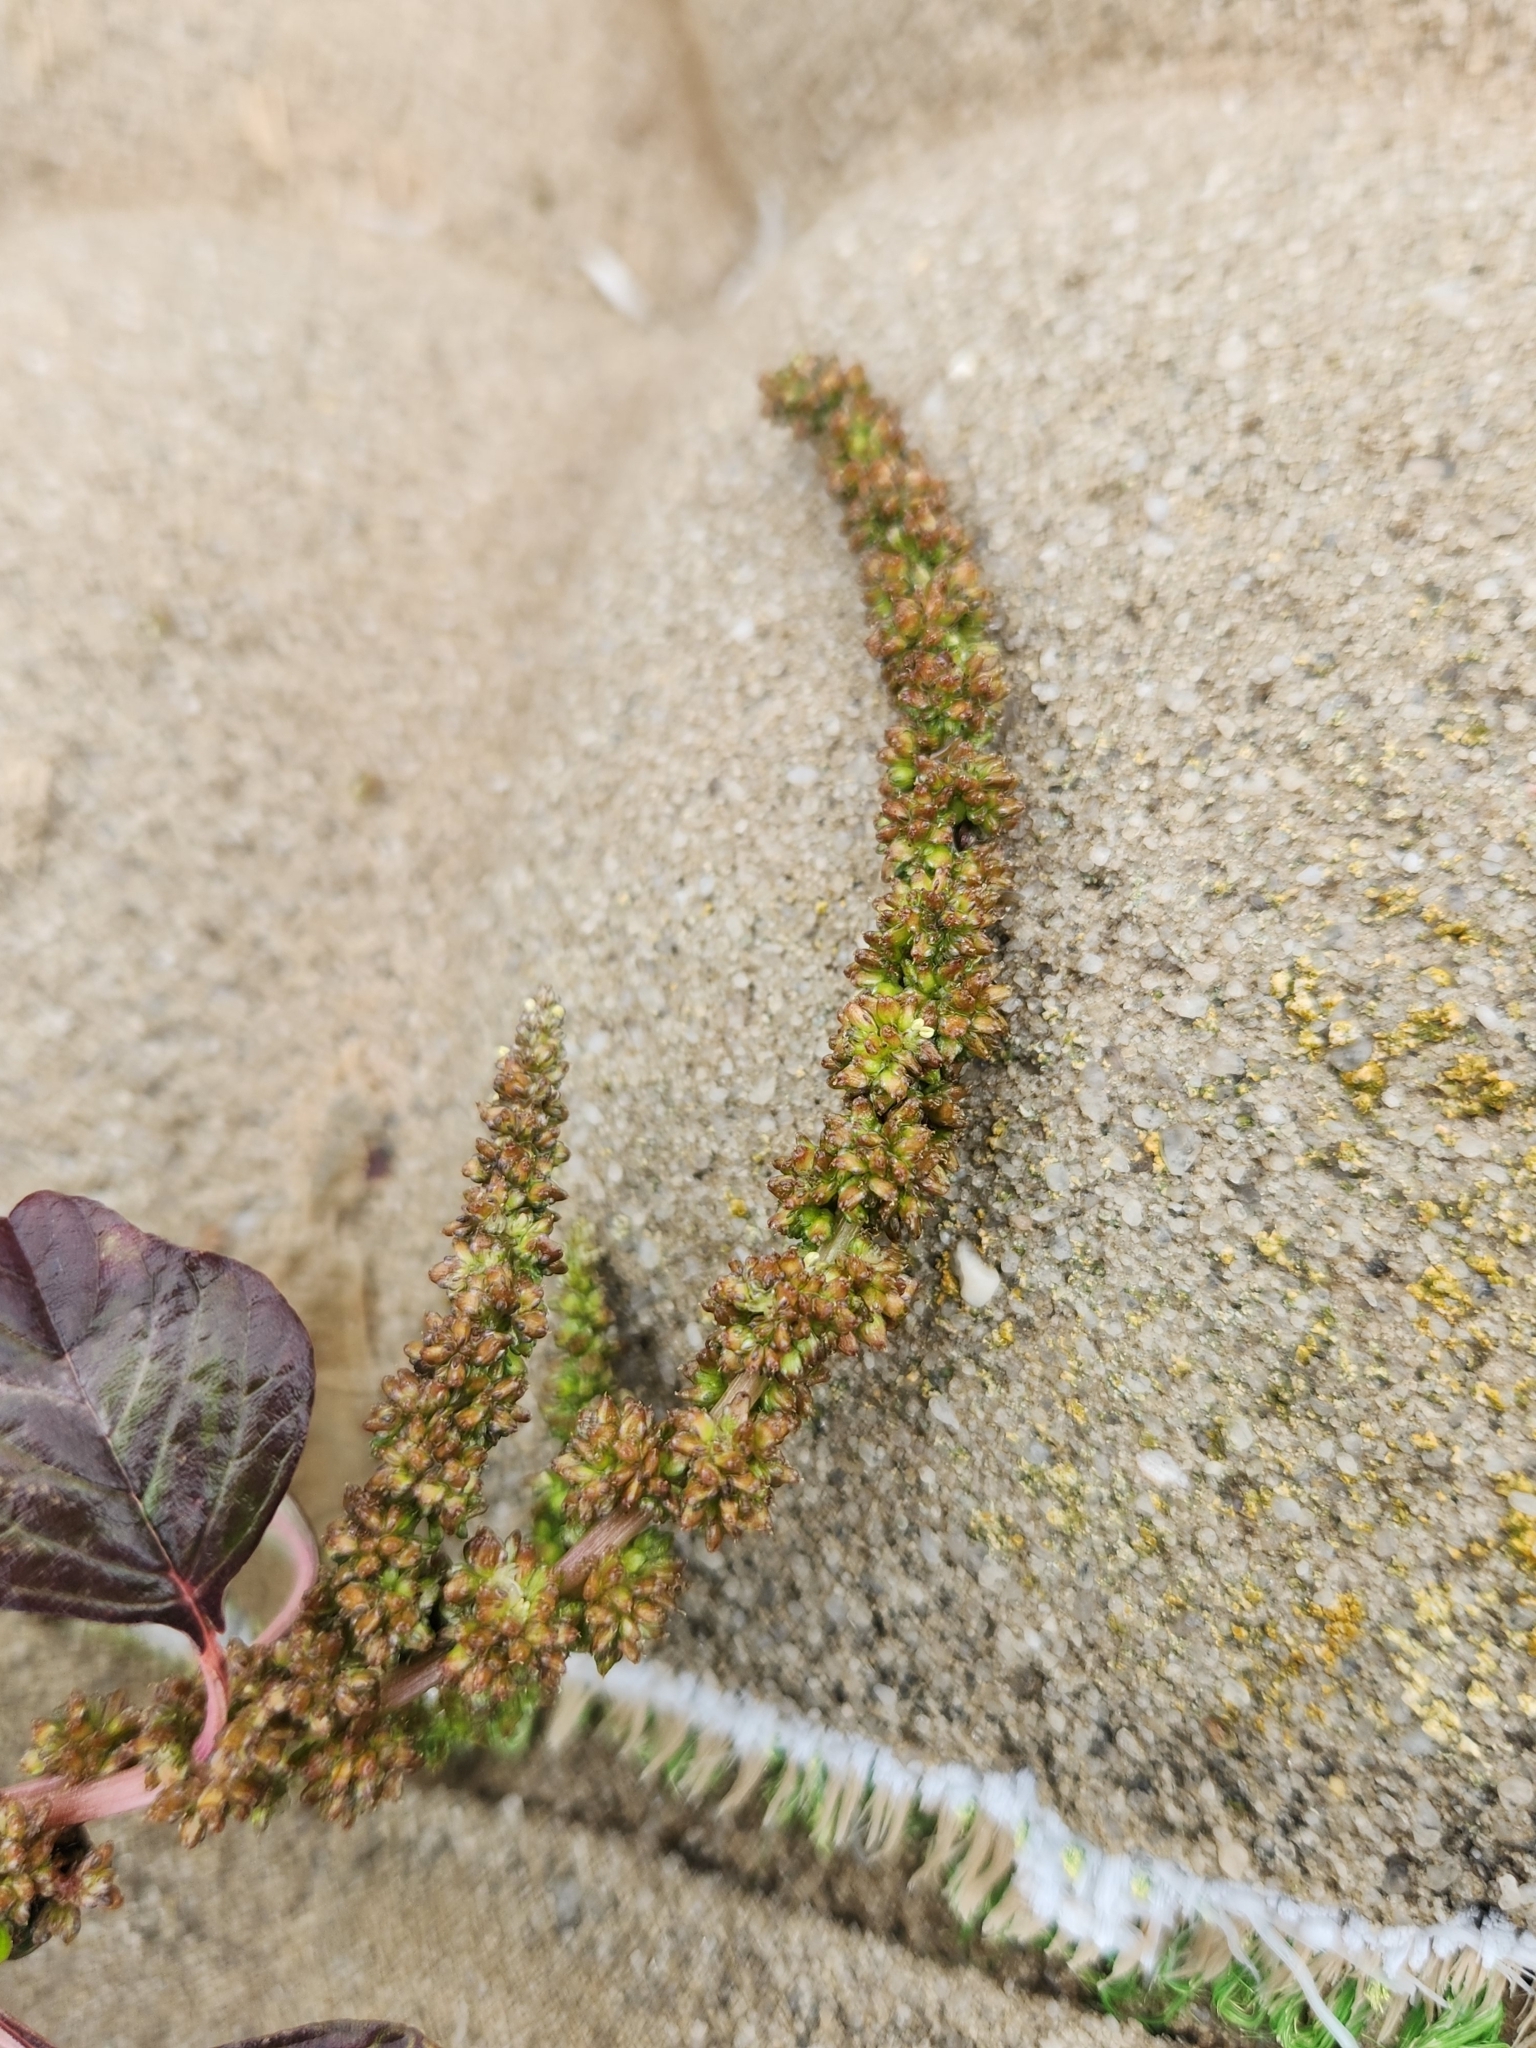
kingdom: Plantae
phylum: Tracheophyta
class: Magnoliopsida
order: Caryophyllales
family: Amaranthaceae
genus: Amaranthus
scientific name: Amaranthus blitum
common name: Purple amaranth
